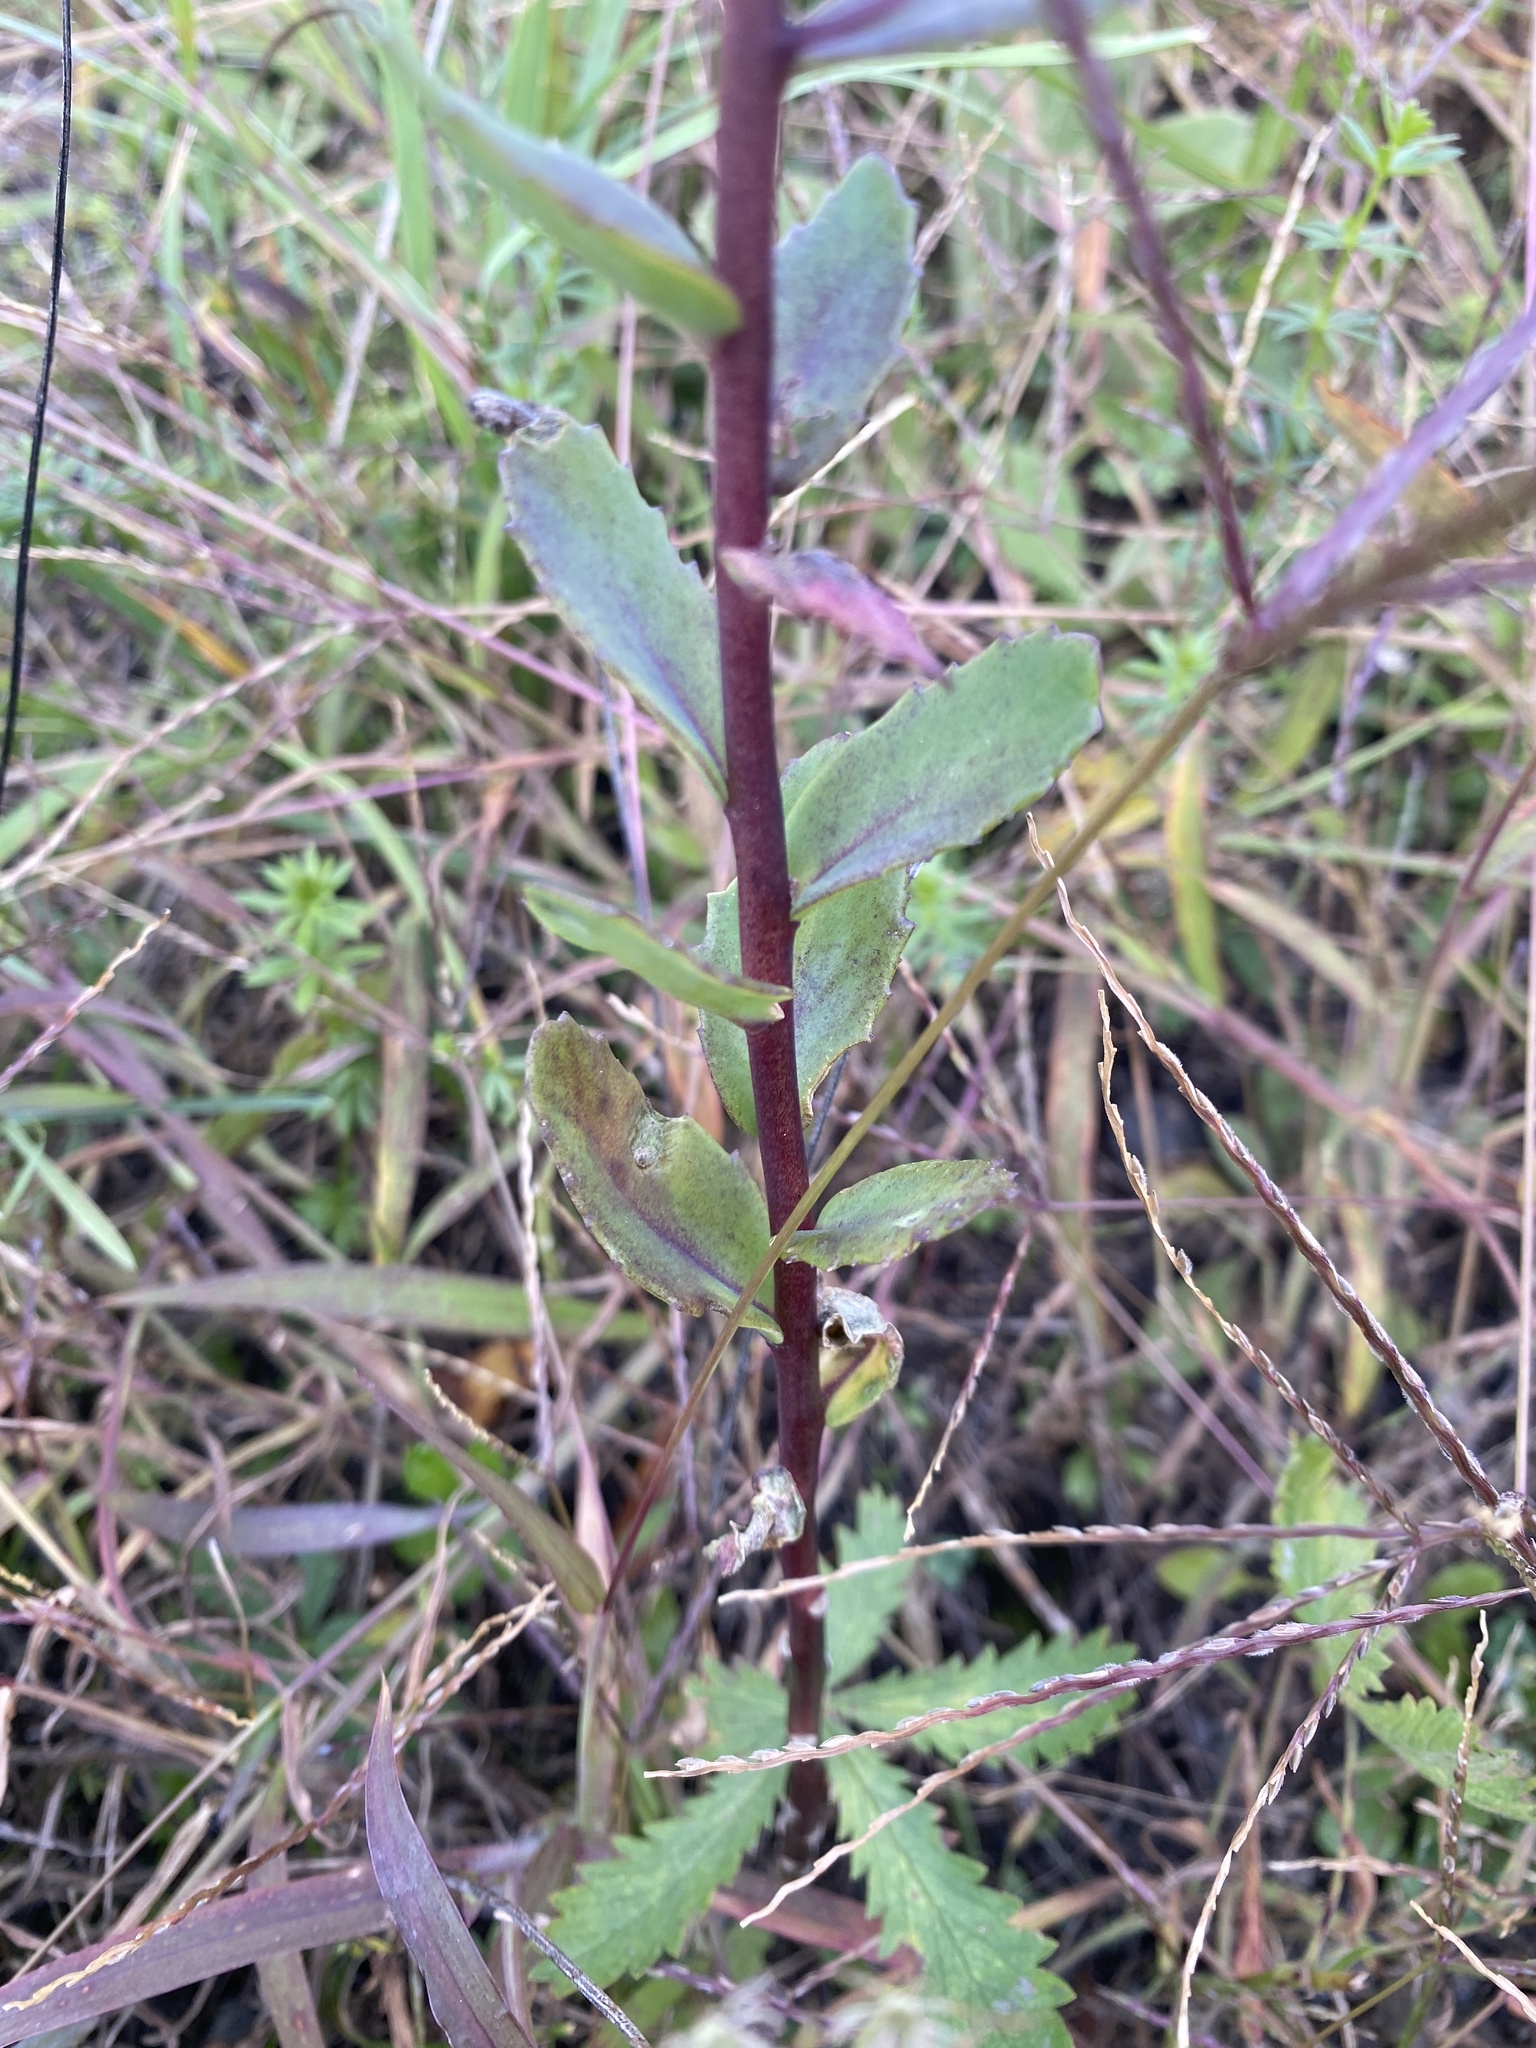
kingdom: Plantae
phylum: Tracheophyta
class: Magnoliopsida
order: Saxifragales
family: Crassulaceae
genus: Hylotelephium
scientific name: Hylotelephium telephium
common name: Live-forever
